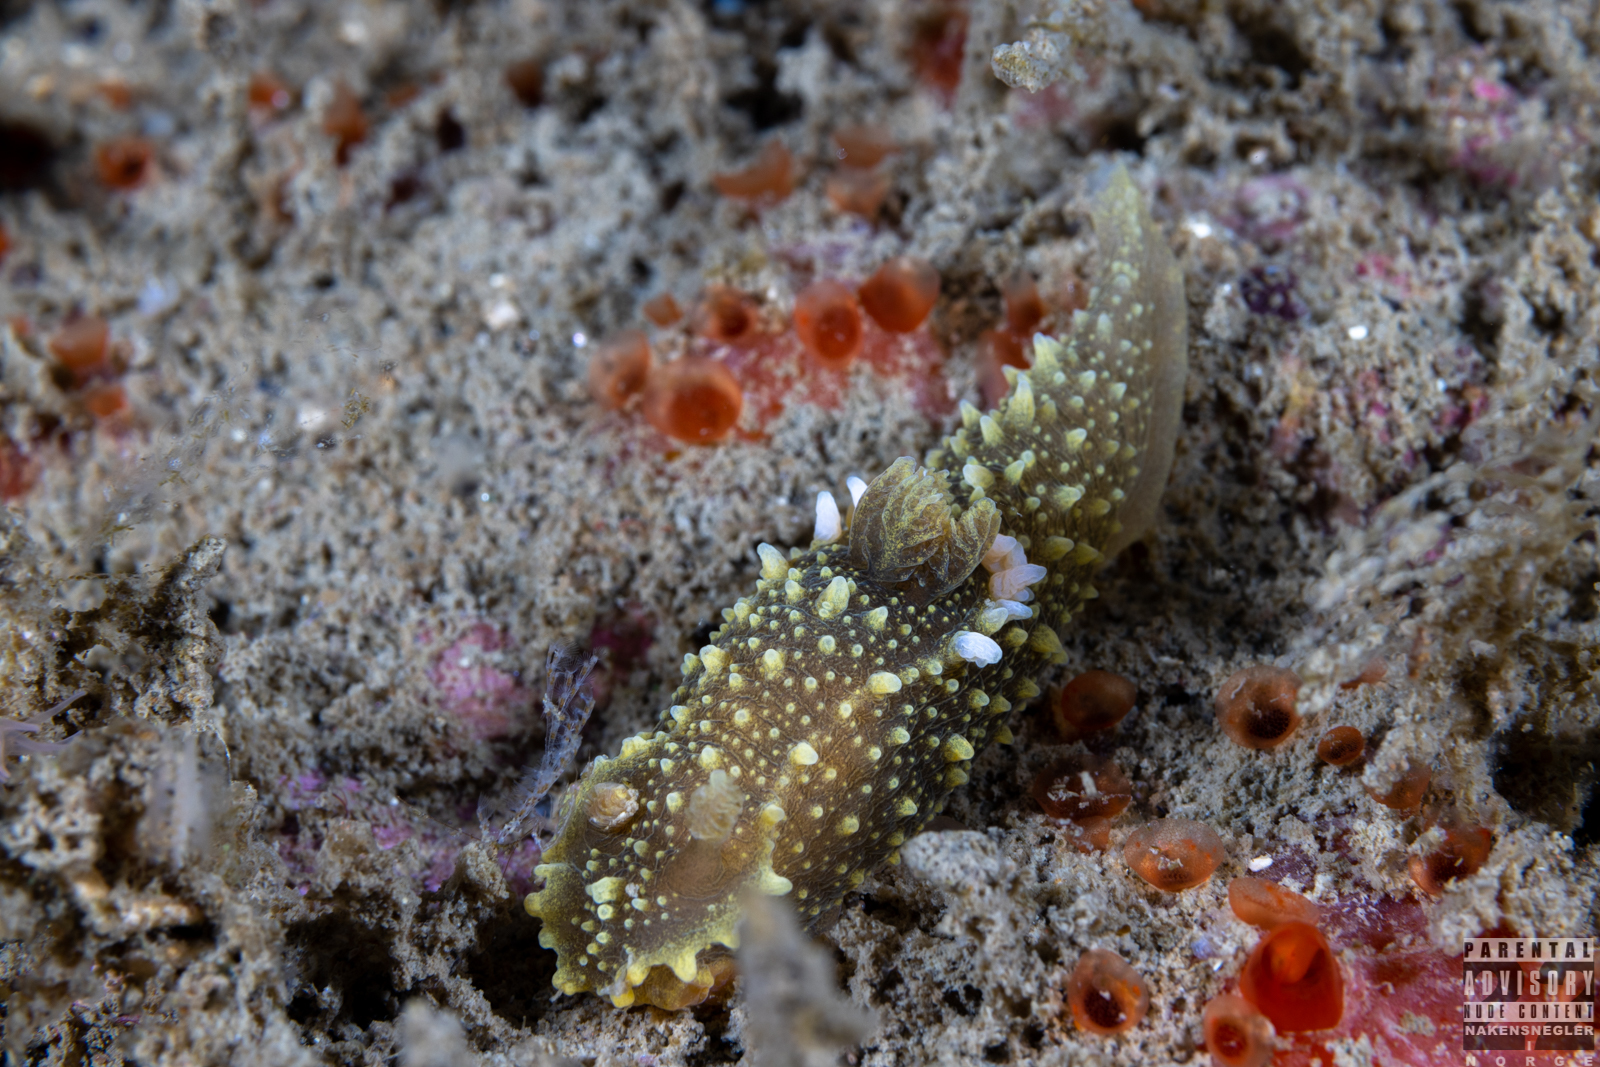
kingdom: Animalia
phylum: Mollusca
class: Gastropoda
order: Nudibranchia
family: Polyceridae
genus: Palio
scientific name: Palio dubia
